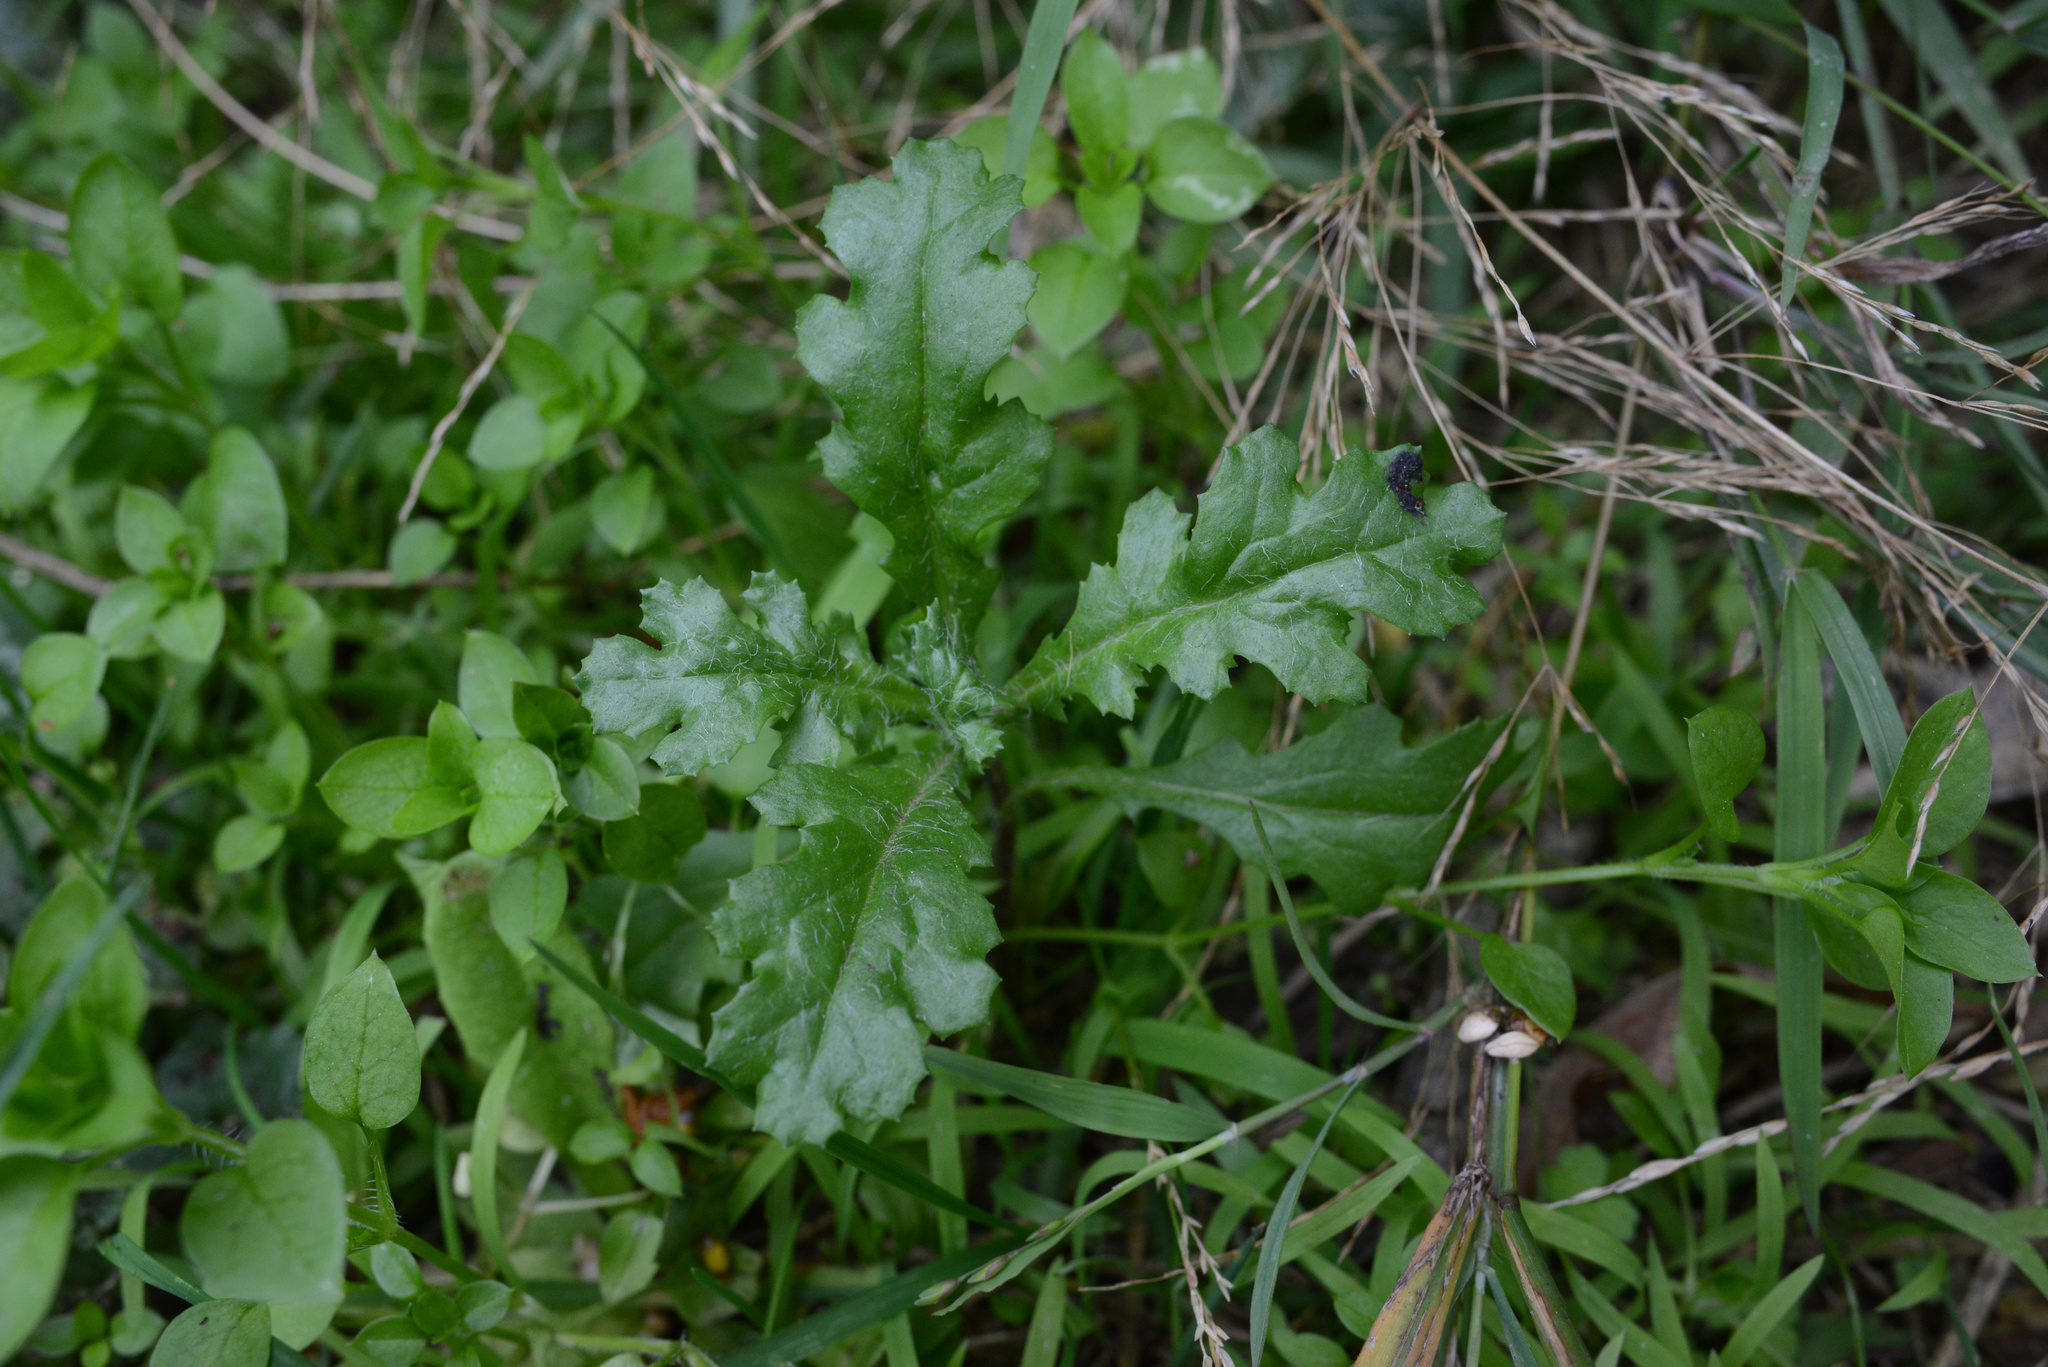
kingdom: Plantae
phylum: Tracheophyta
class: Magnoliopsida
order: Asterales
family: Asteraceae
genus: Senecio
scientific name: Senecio vulgaris
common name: Old-man-in-the-spring
